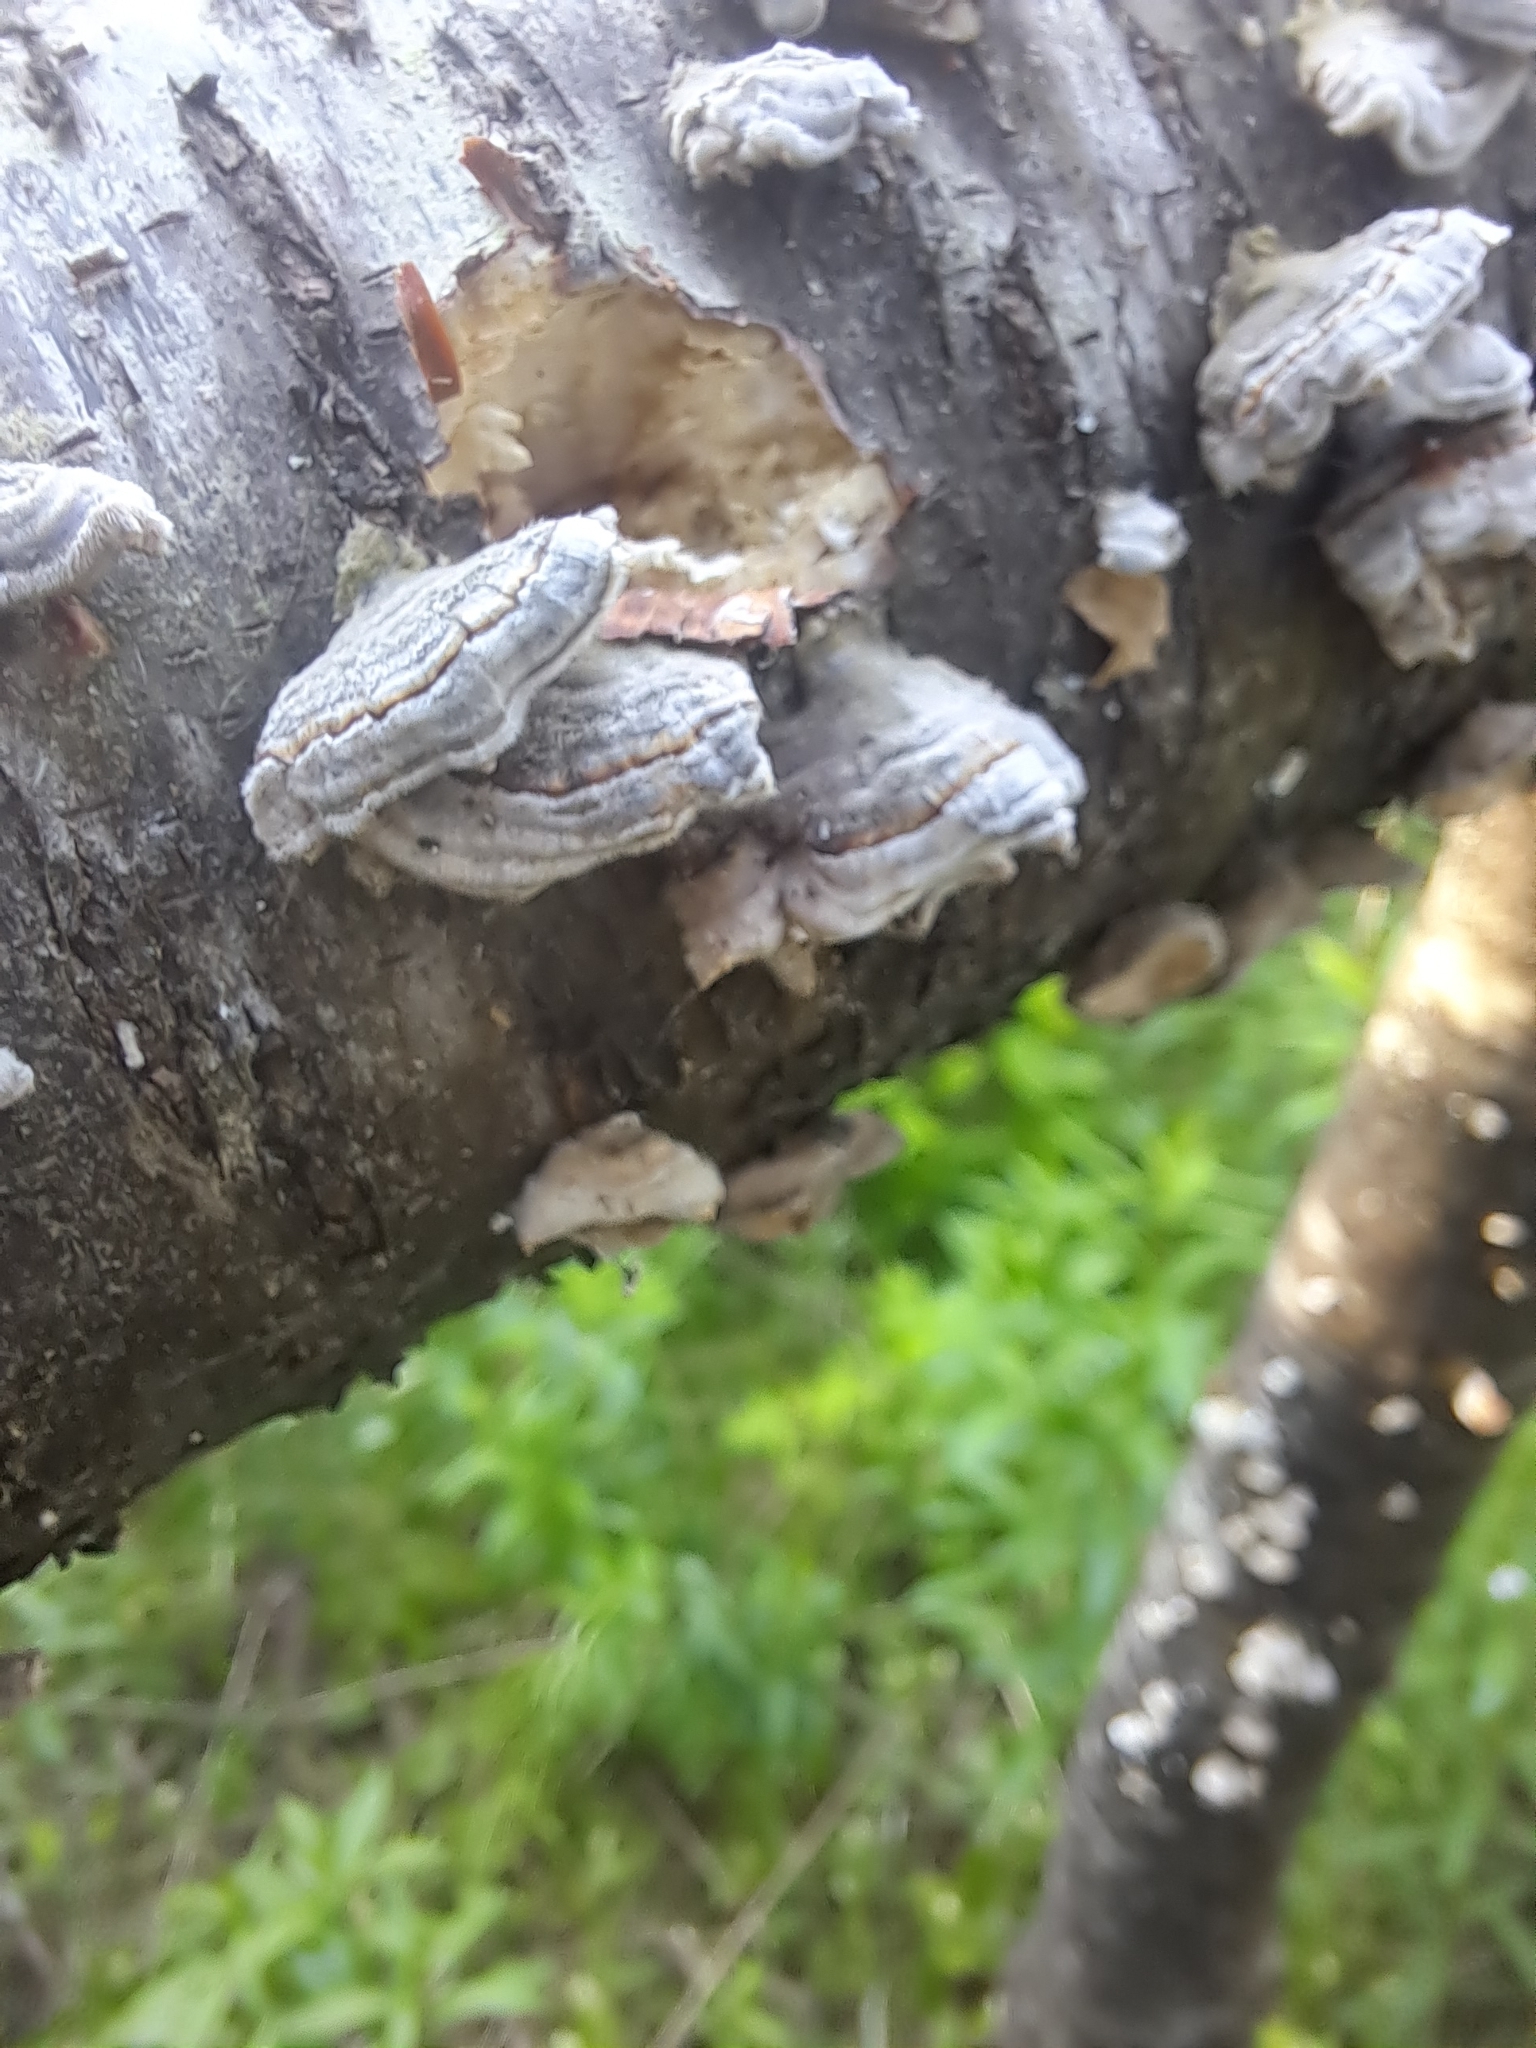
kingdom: Fungi
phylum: Basidiomycota
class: Agaricomycetes
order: Polyporales
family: Polyporaceae
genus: Trametes
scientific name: Trametes versicolor
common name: Turkeytail
